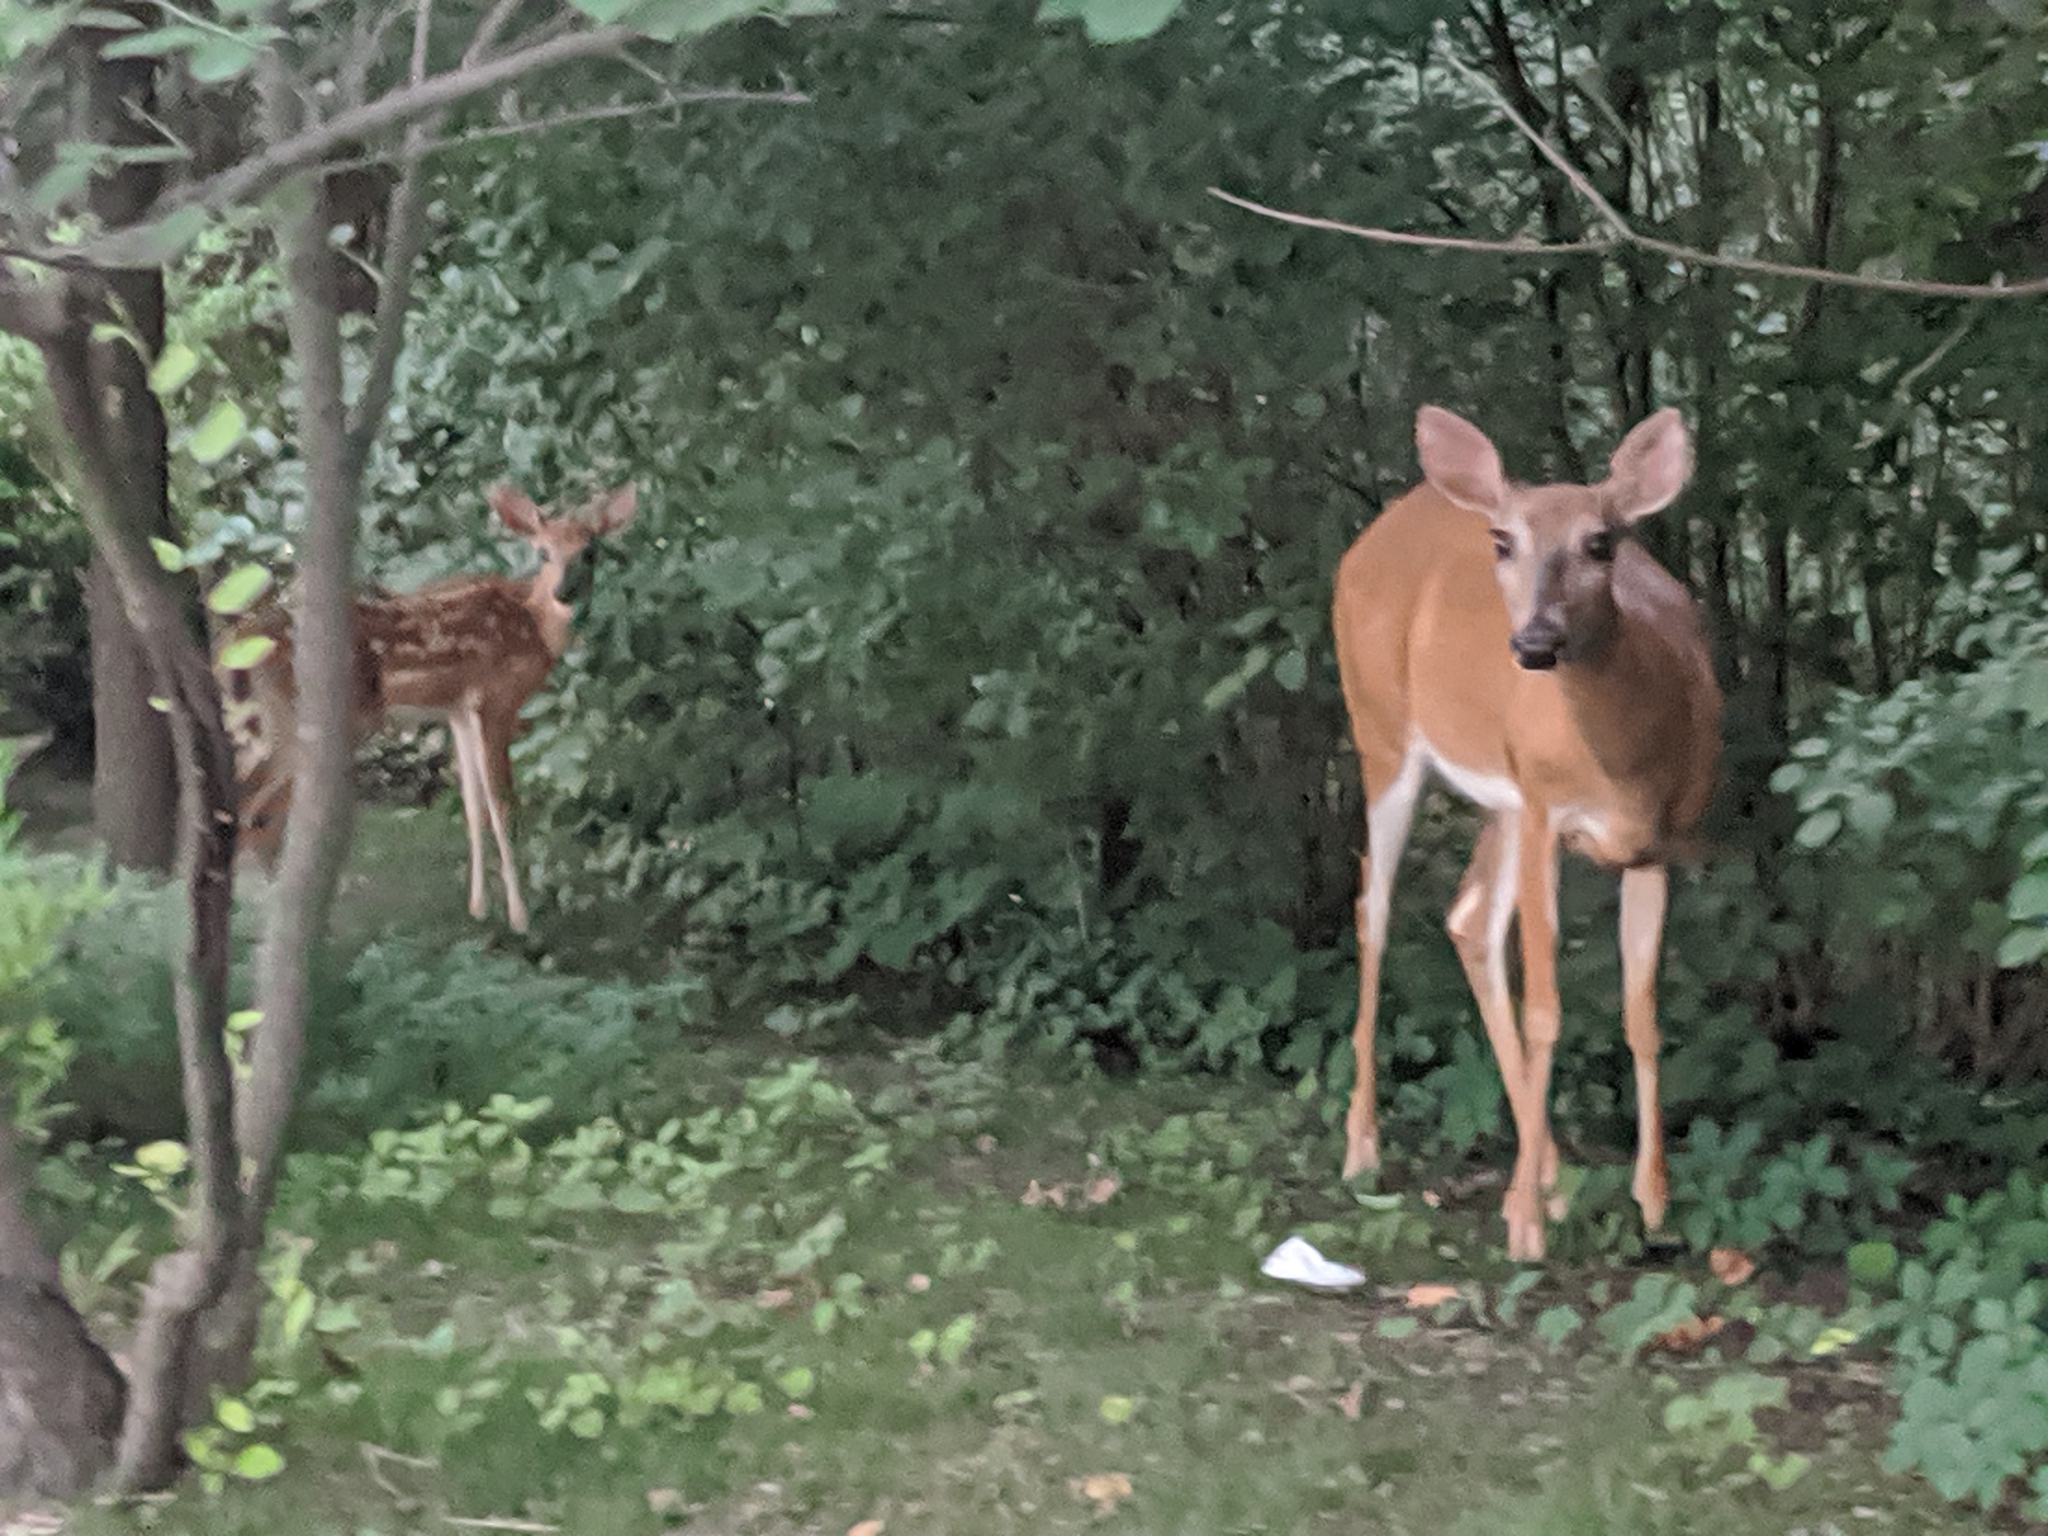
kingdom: Animalia
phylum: Chordata
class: Mammalia
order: Artiodactyla
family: Cervidae
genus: Odocoileus
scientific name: Odocoileus virginianus
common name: White-tailed deer
